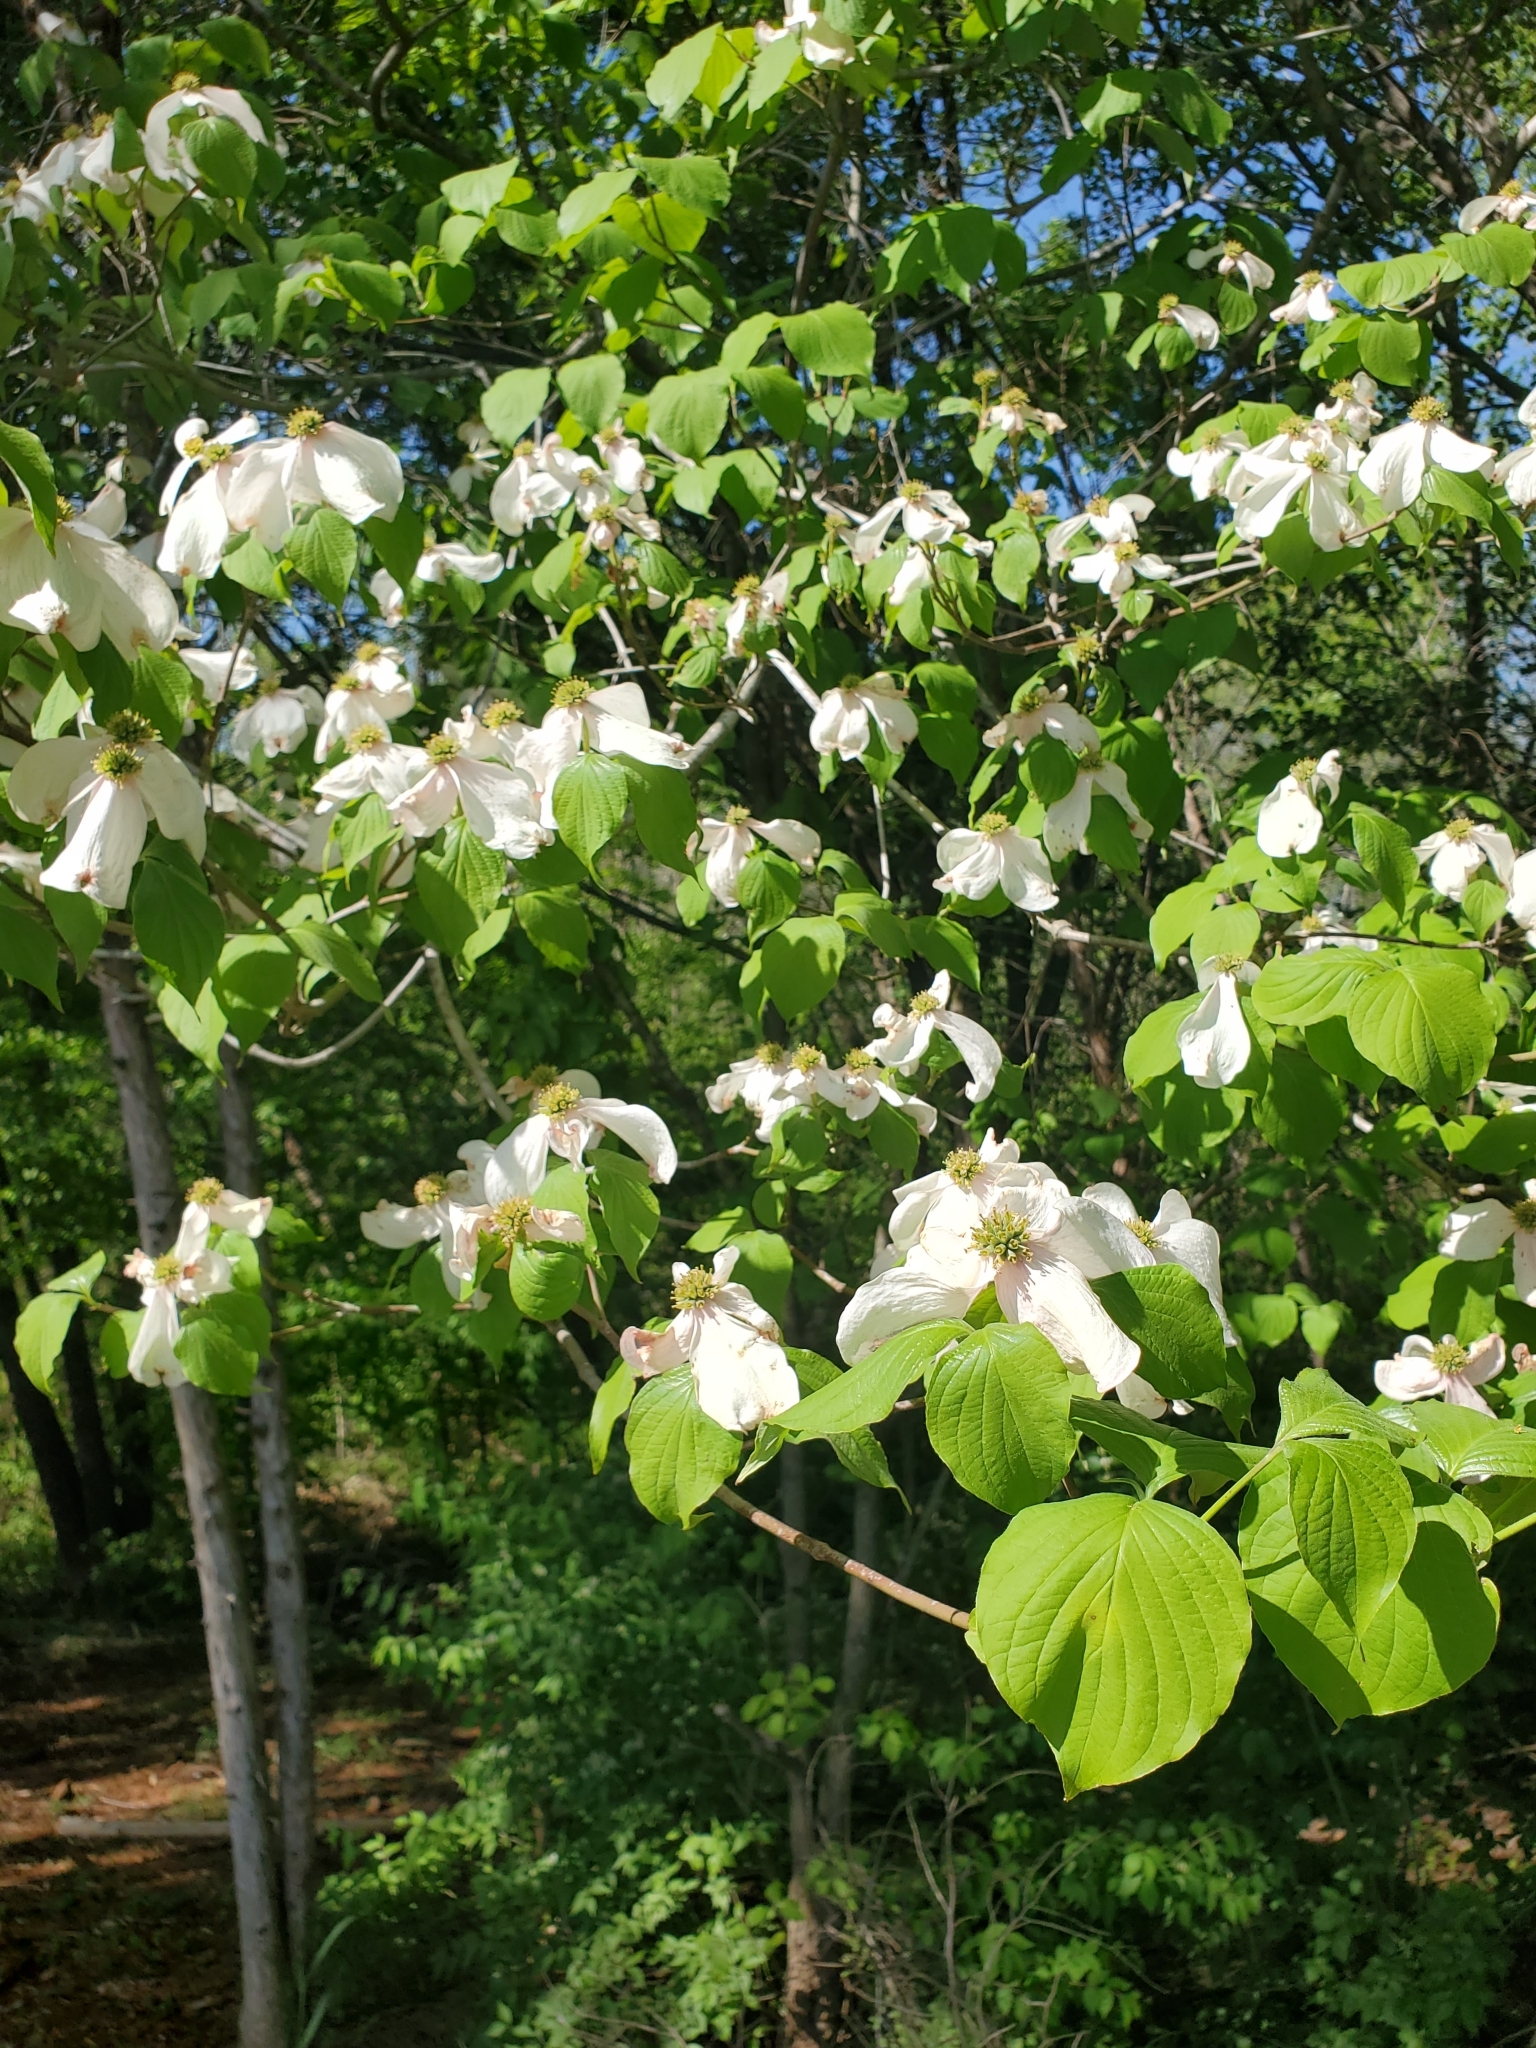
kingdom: Plantae
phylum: Tracheophyta
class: Magnoliopsida
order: Cornales
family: Cornaceae
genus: Cornus
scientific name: Cornus florida
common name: Flowering dogwood
